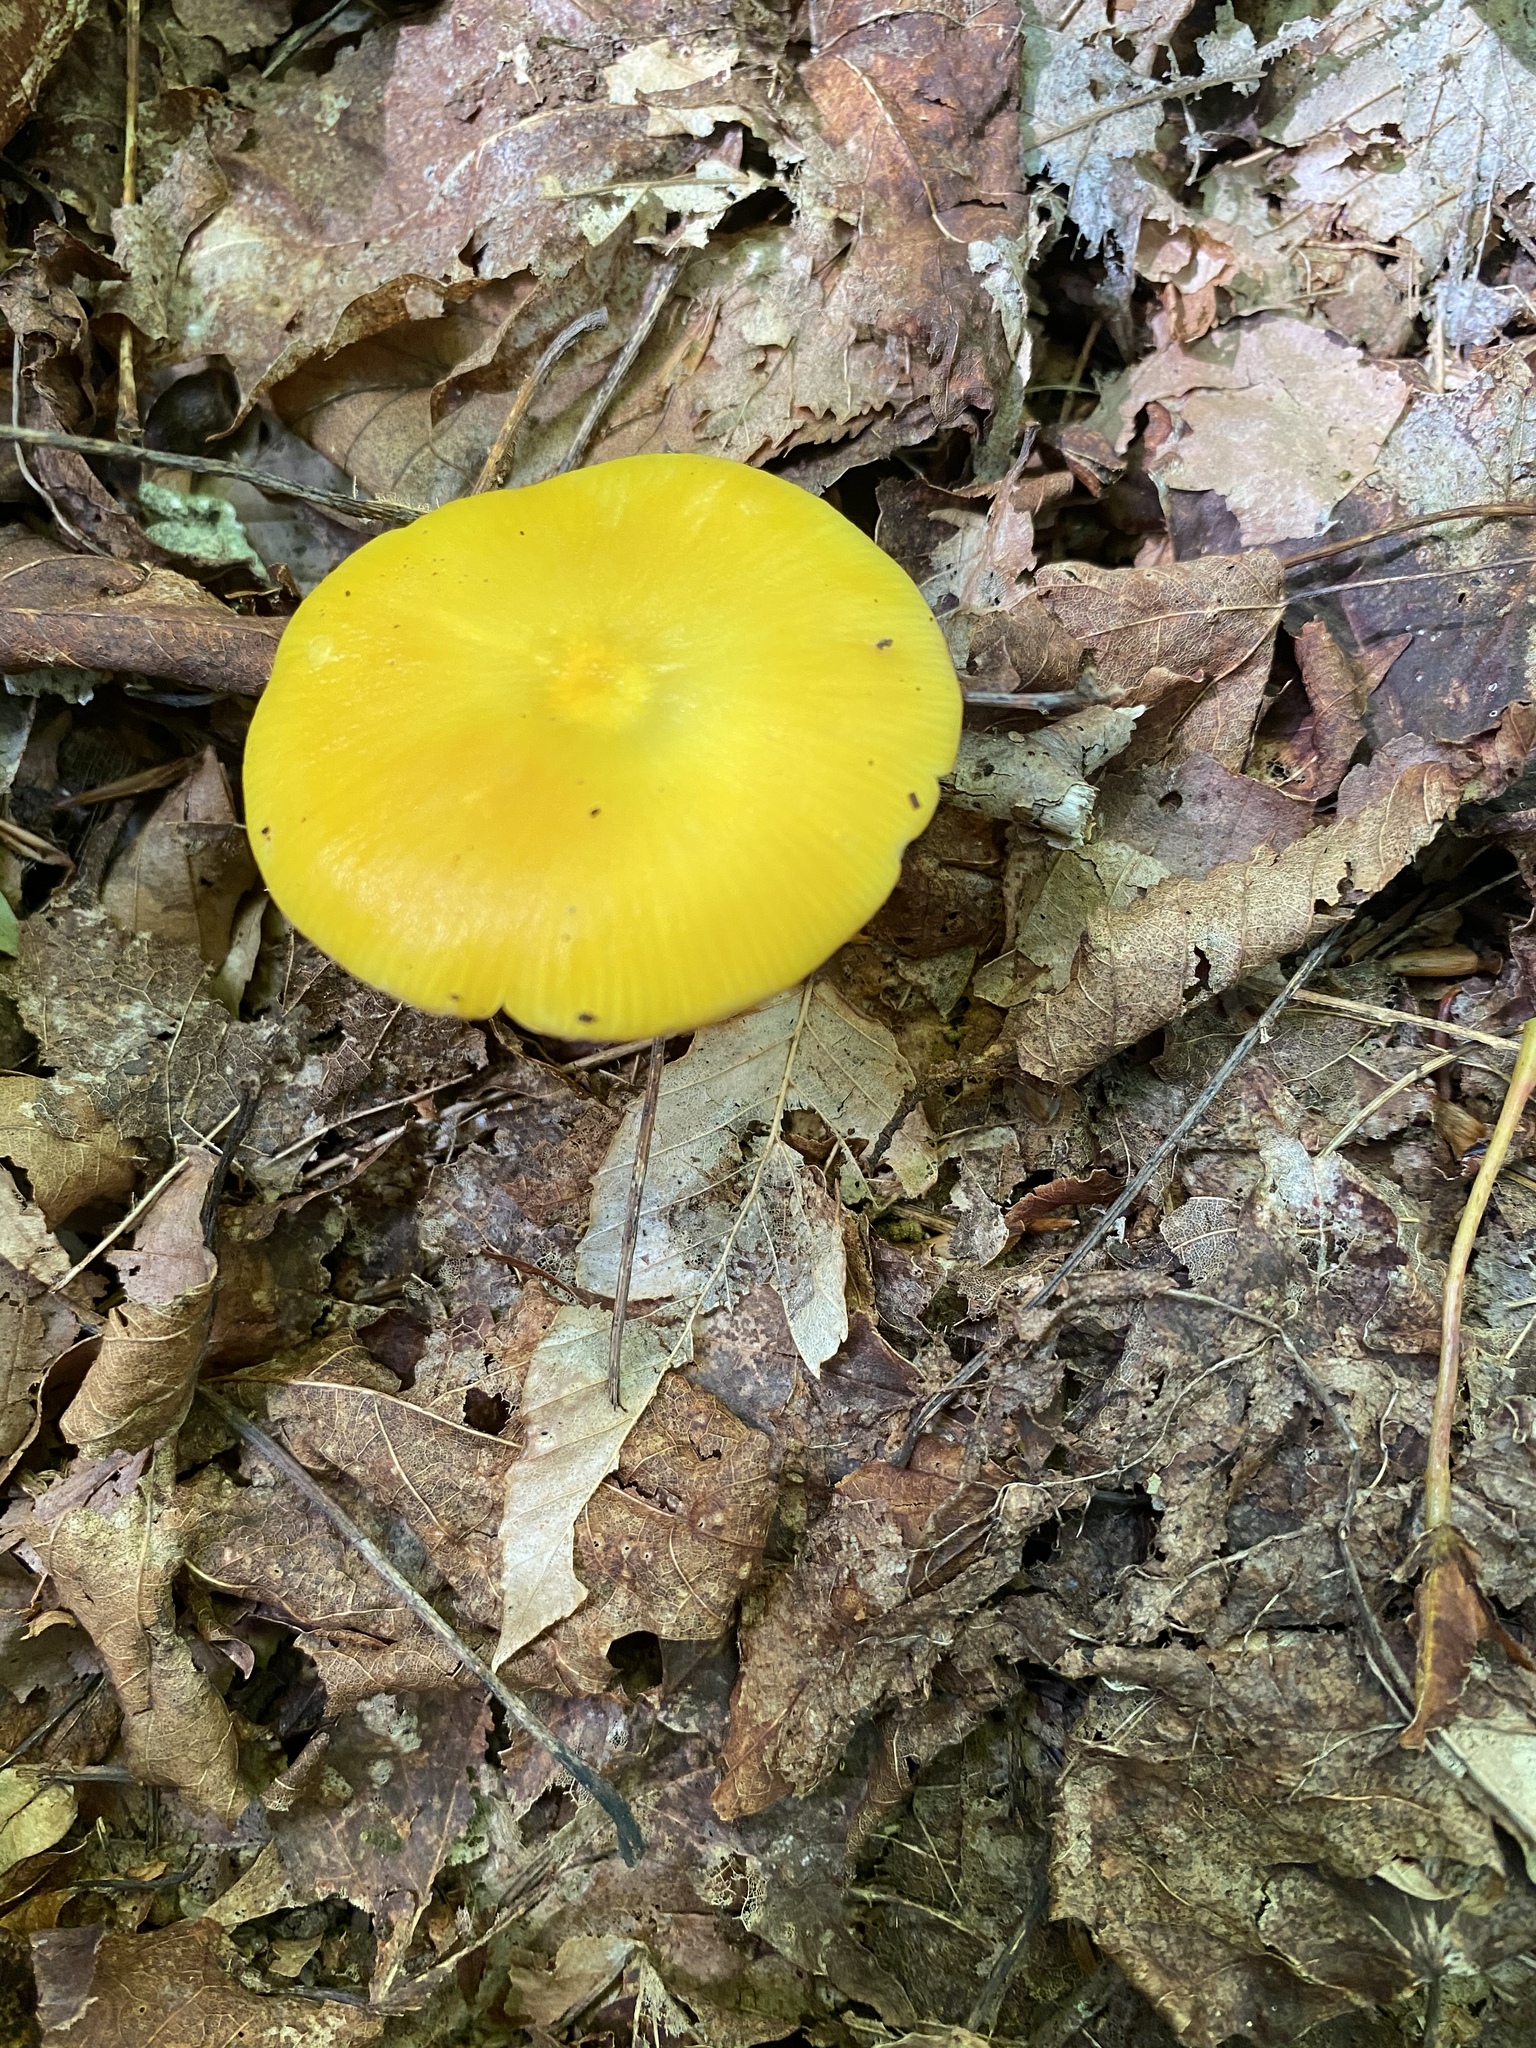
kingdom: Fungi
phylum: Basidiomycota
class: Agaricomycetes
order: Agaricales
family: Hygrophoraceae
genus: Hygrocybe
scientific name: Hygrocybe chlorophana
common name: Golden waxcap
